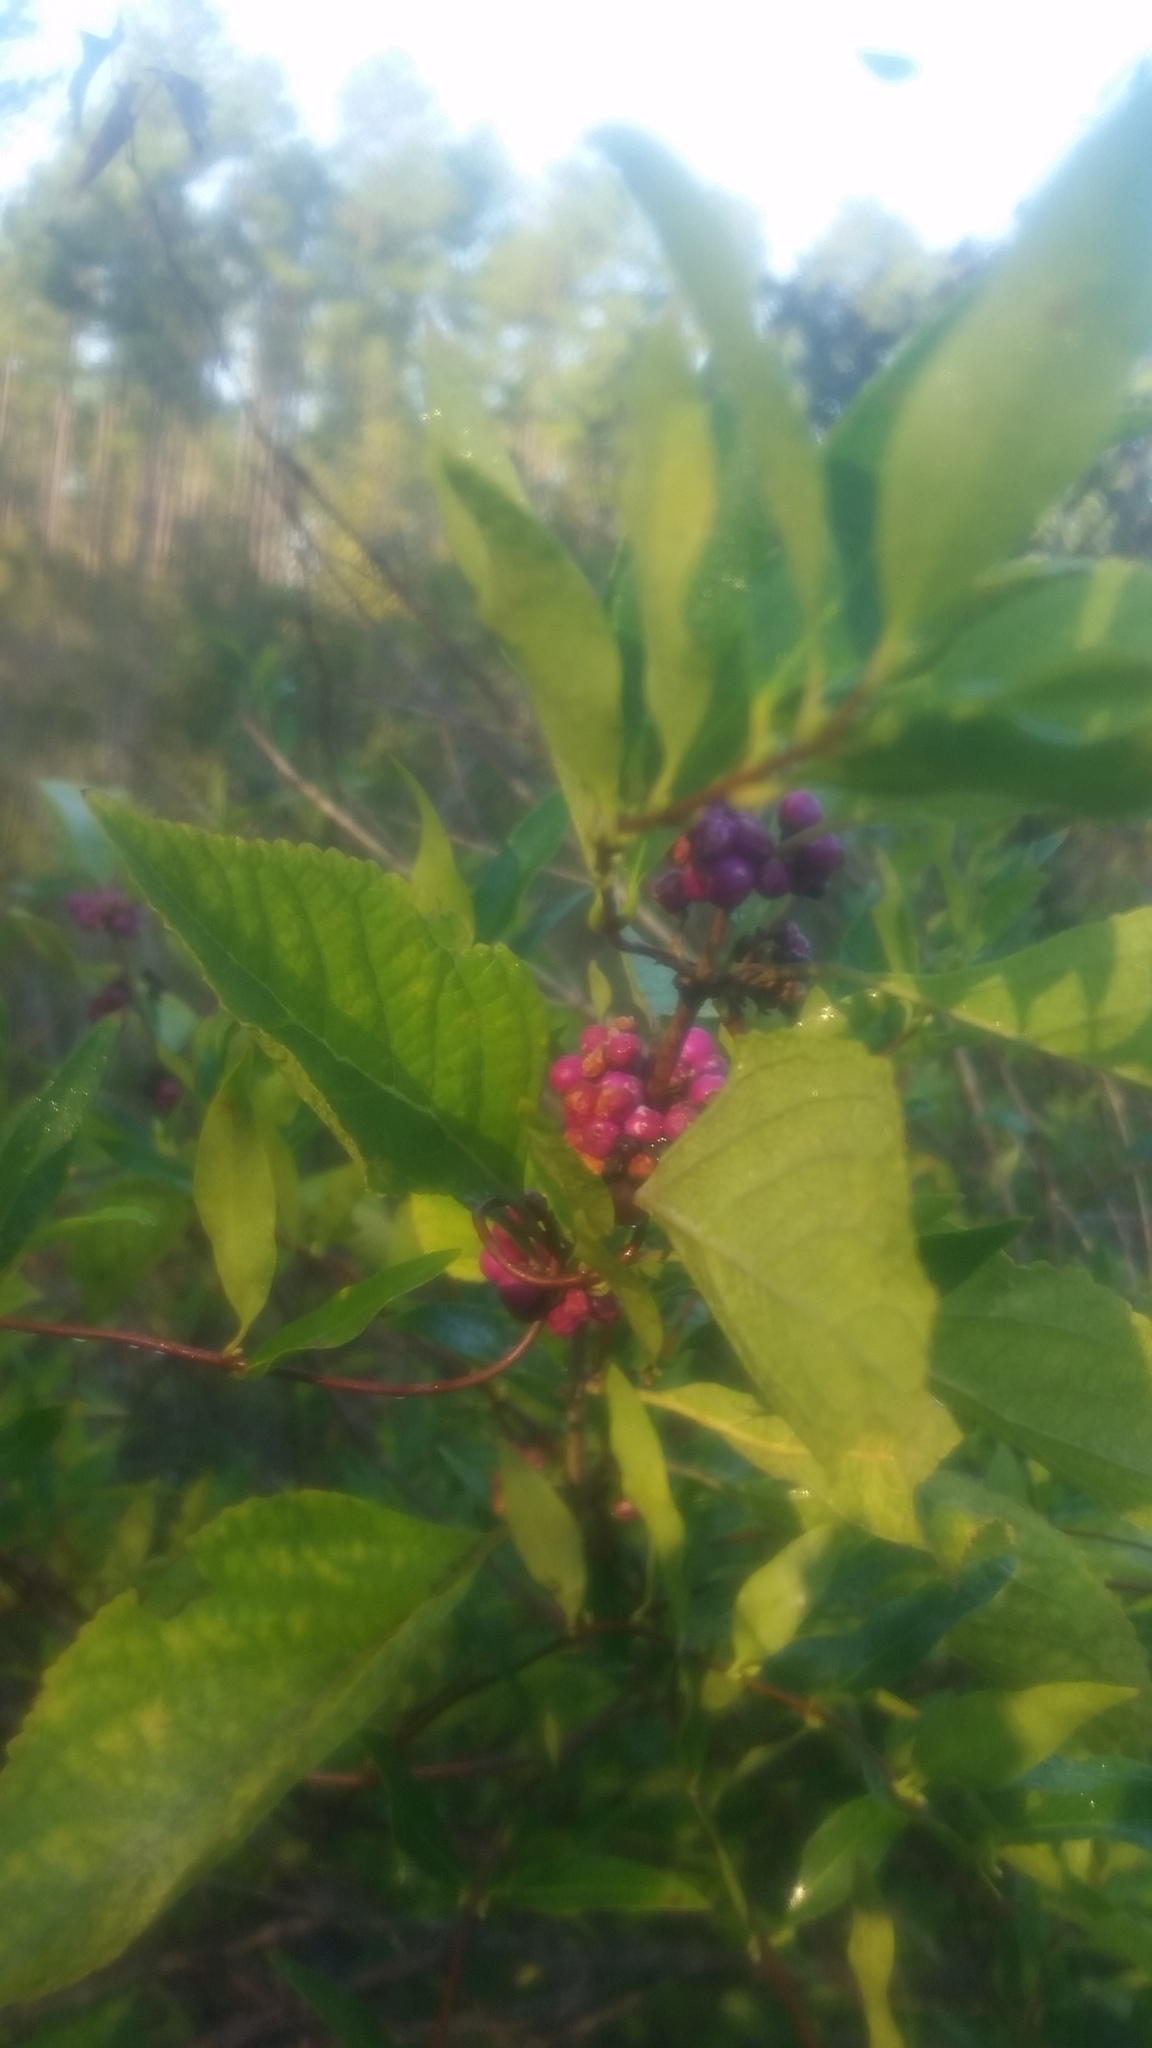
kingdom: Plantae
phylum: Tracheophyta
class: Magnoliopsida
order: Lamiales
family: Lamiaceae
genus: Callicarpa
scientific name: Callicarpa americana
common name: American beautyberry
